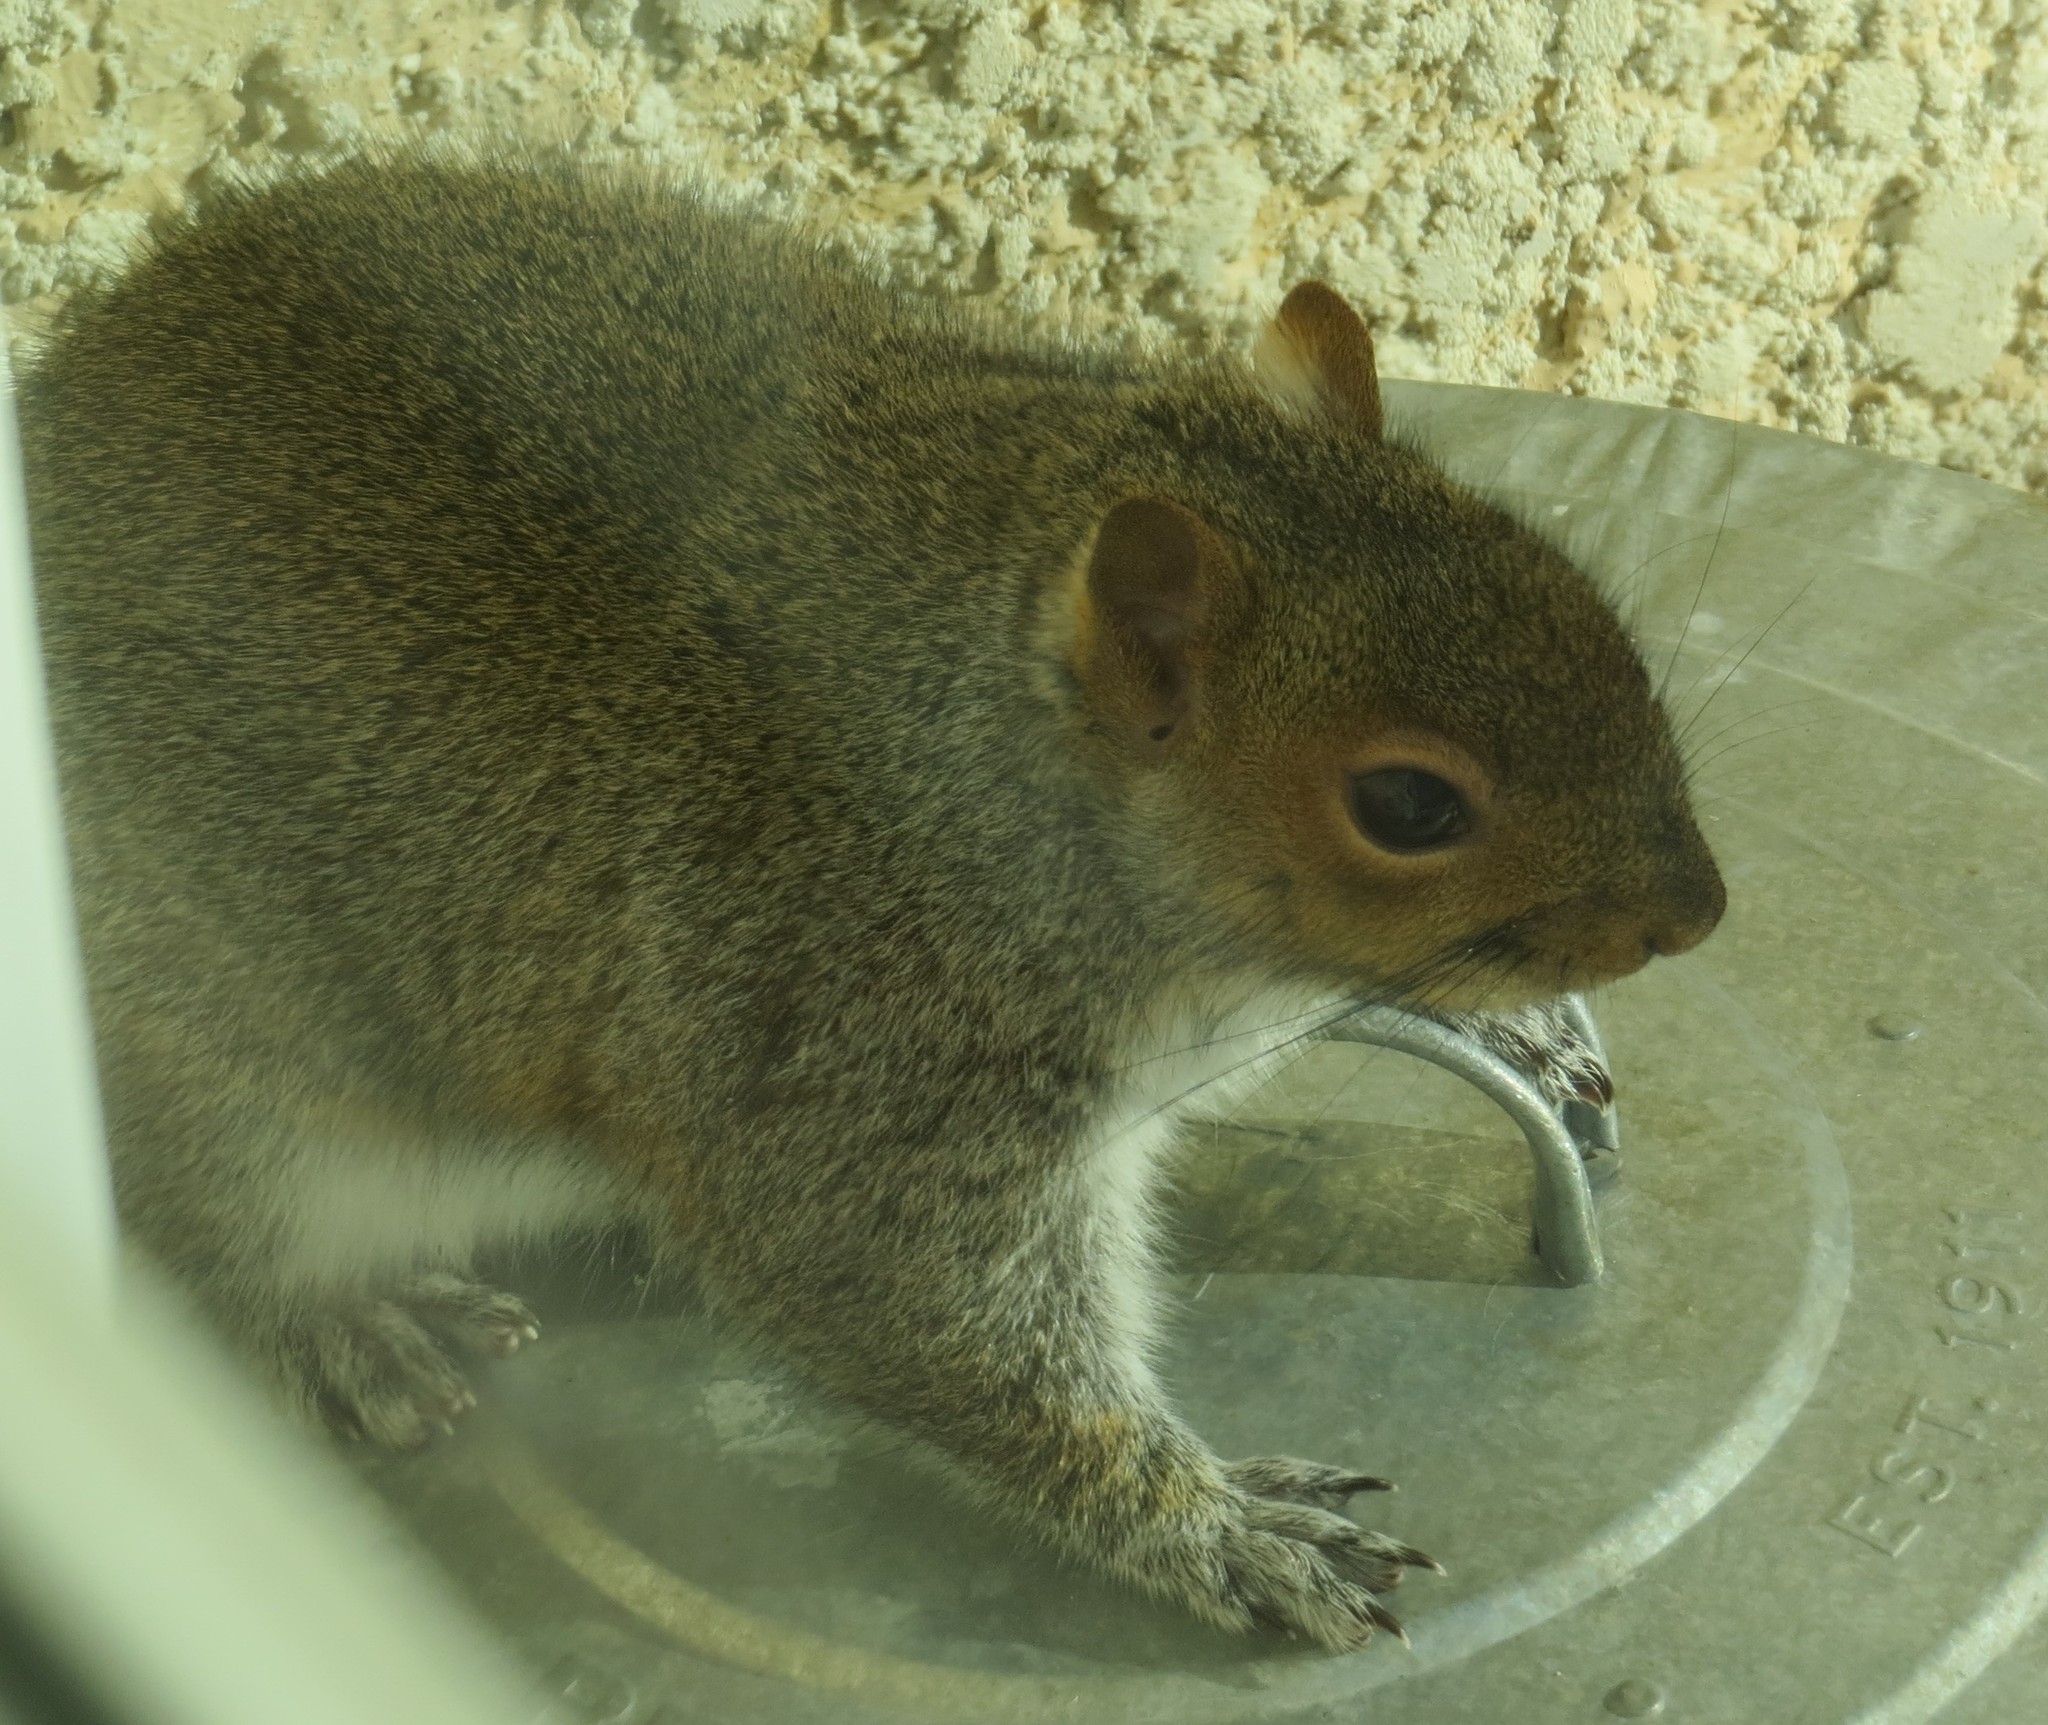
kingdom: Animalia
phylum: Chordata
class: Mammalia
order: Rodentia
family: Sciuridae
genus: Sciurus
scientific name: Sciurus carolinensis
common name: Eastern gray squirrel
